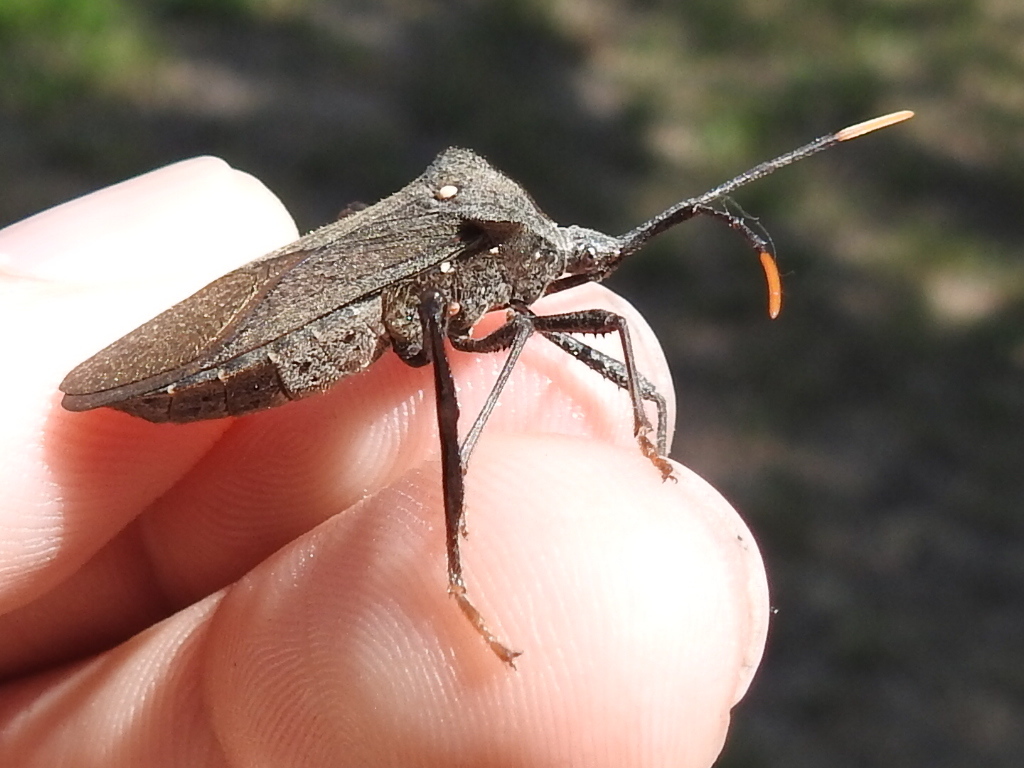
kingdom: Animalia
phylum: Arthropoda
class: Insecta
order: Hemiptera
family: Coreidae
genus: Acanthocephala
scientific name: Acanthocephala terminalis
